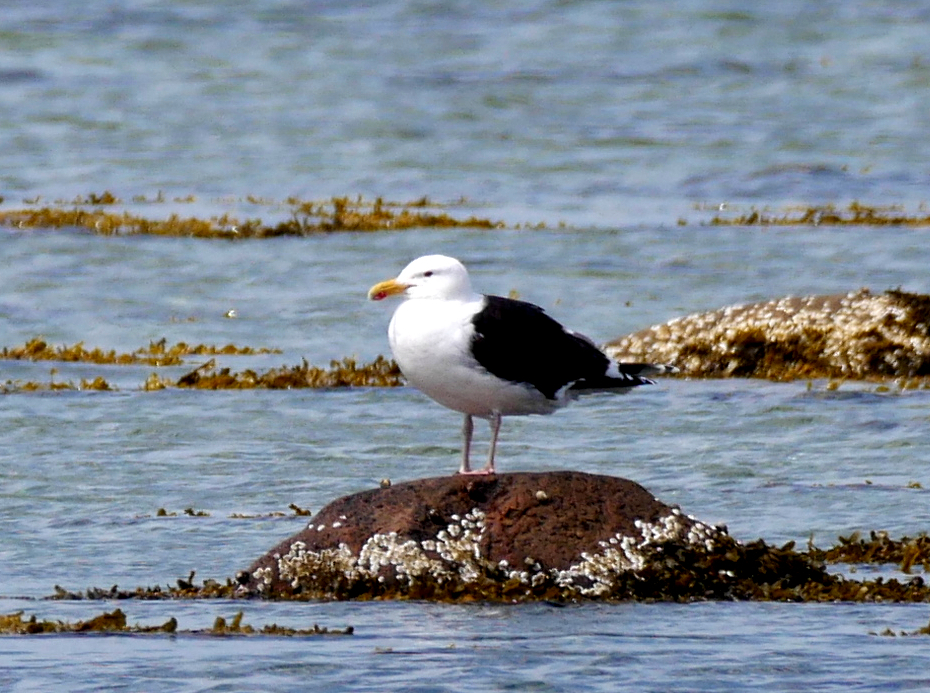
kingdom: Animalia
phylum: Chordata
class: Aves
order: Charadriiformes
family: Laridae
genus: Larus
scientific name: Larus marinus
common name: Great black-backed gull
